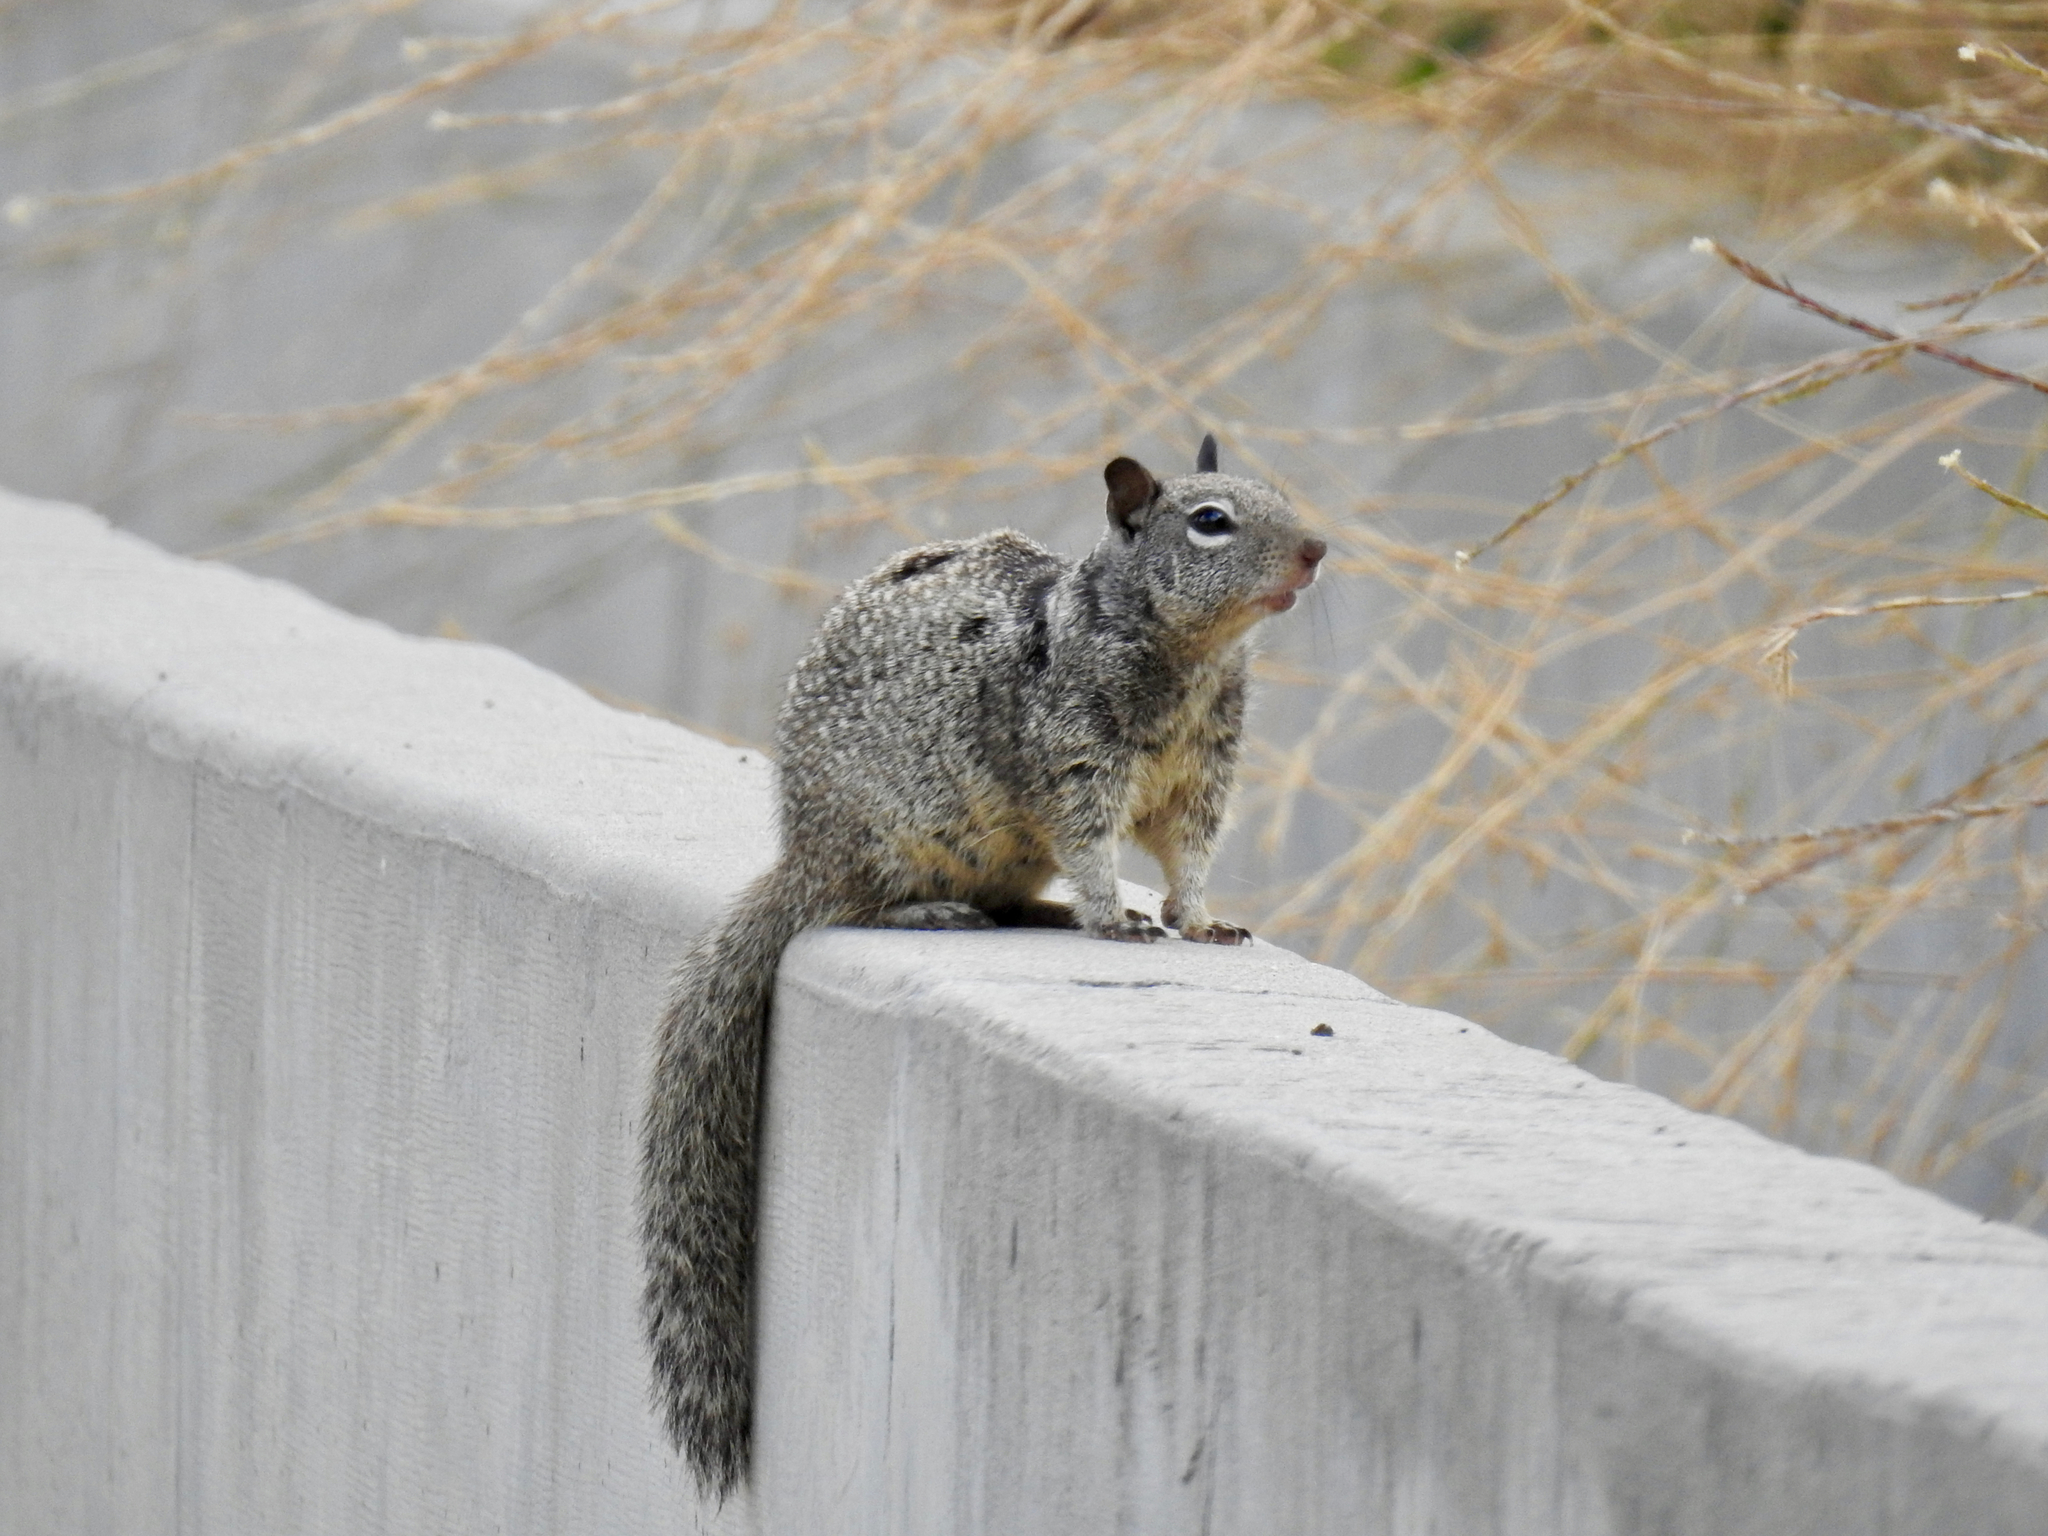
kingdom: Animalia
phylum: Chordata
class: Mammalia
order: Rodentia
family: Sciuridae
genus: Otospermophilus
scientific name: Otospermophilus beecheyi
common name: California ground squirrel
